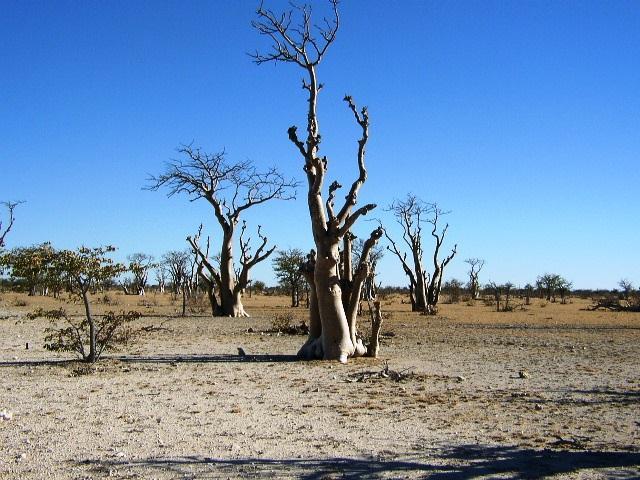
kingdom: Plantae
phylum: Tracheophyta
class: Magnoliopsida
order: Brassicales
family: Moringaceae
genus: Moringa
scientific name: Moringa ovalifolia
